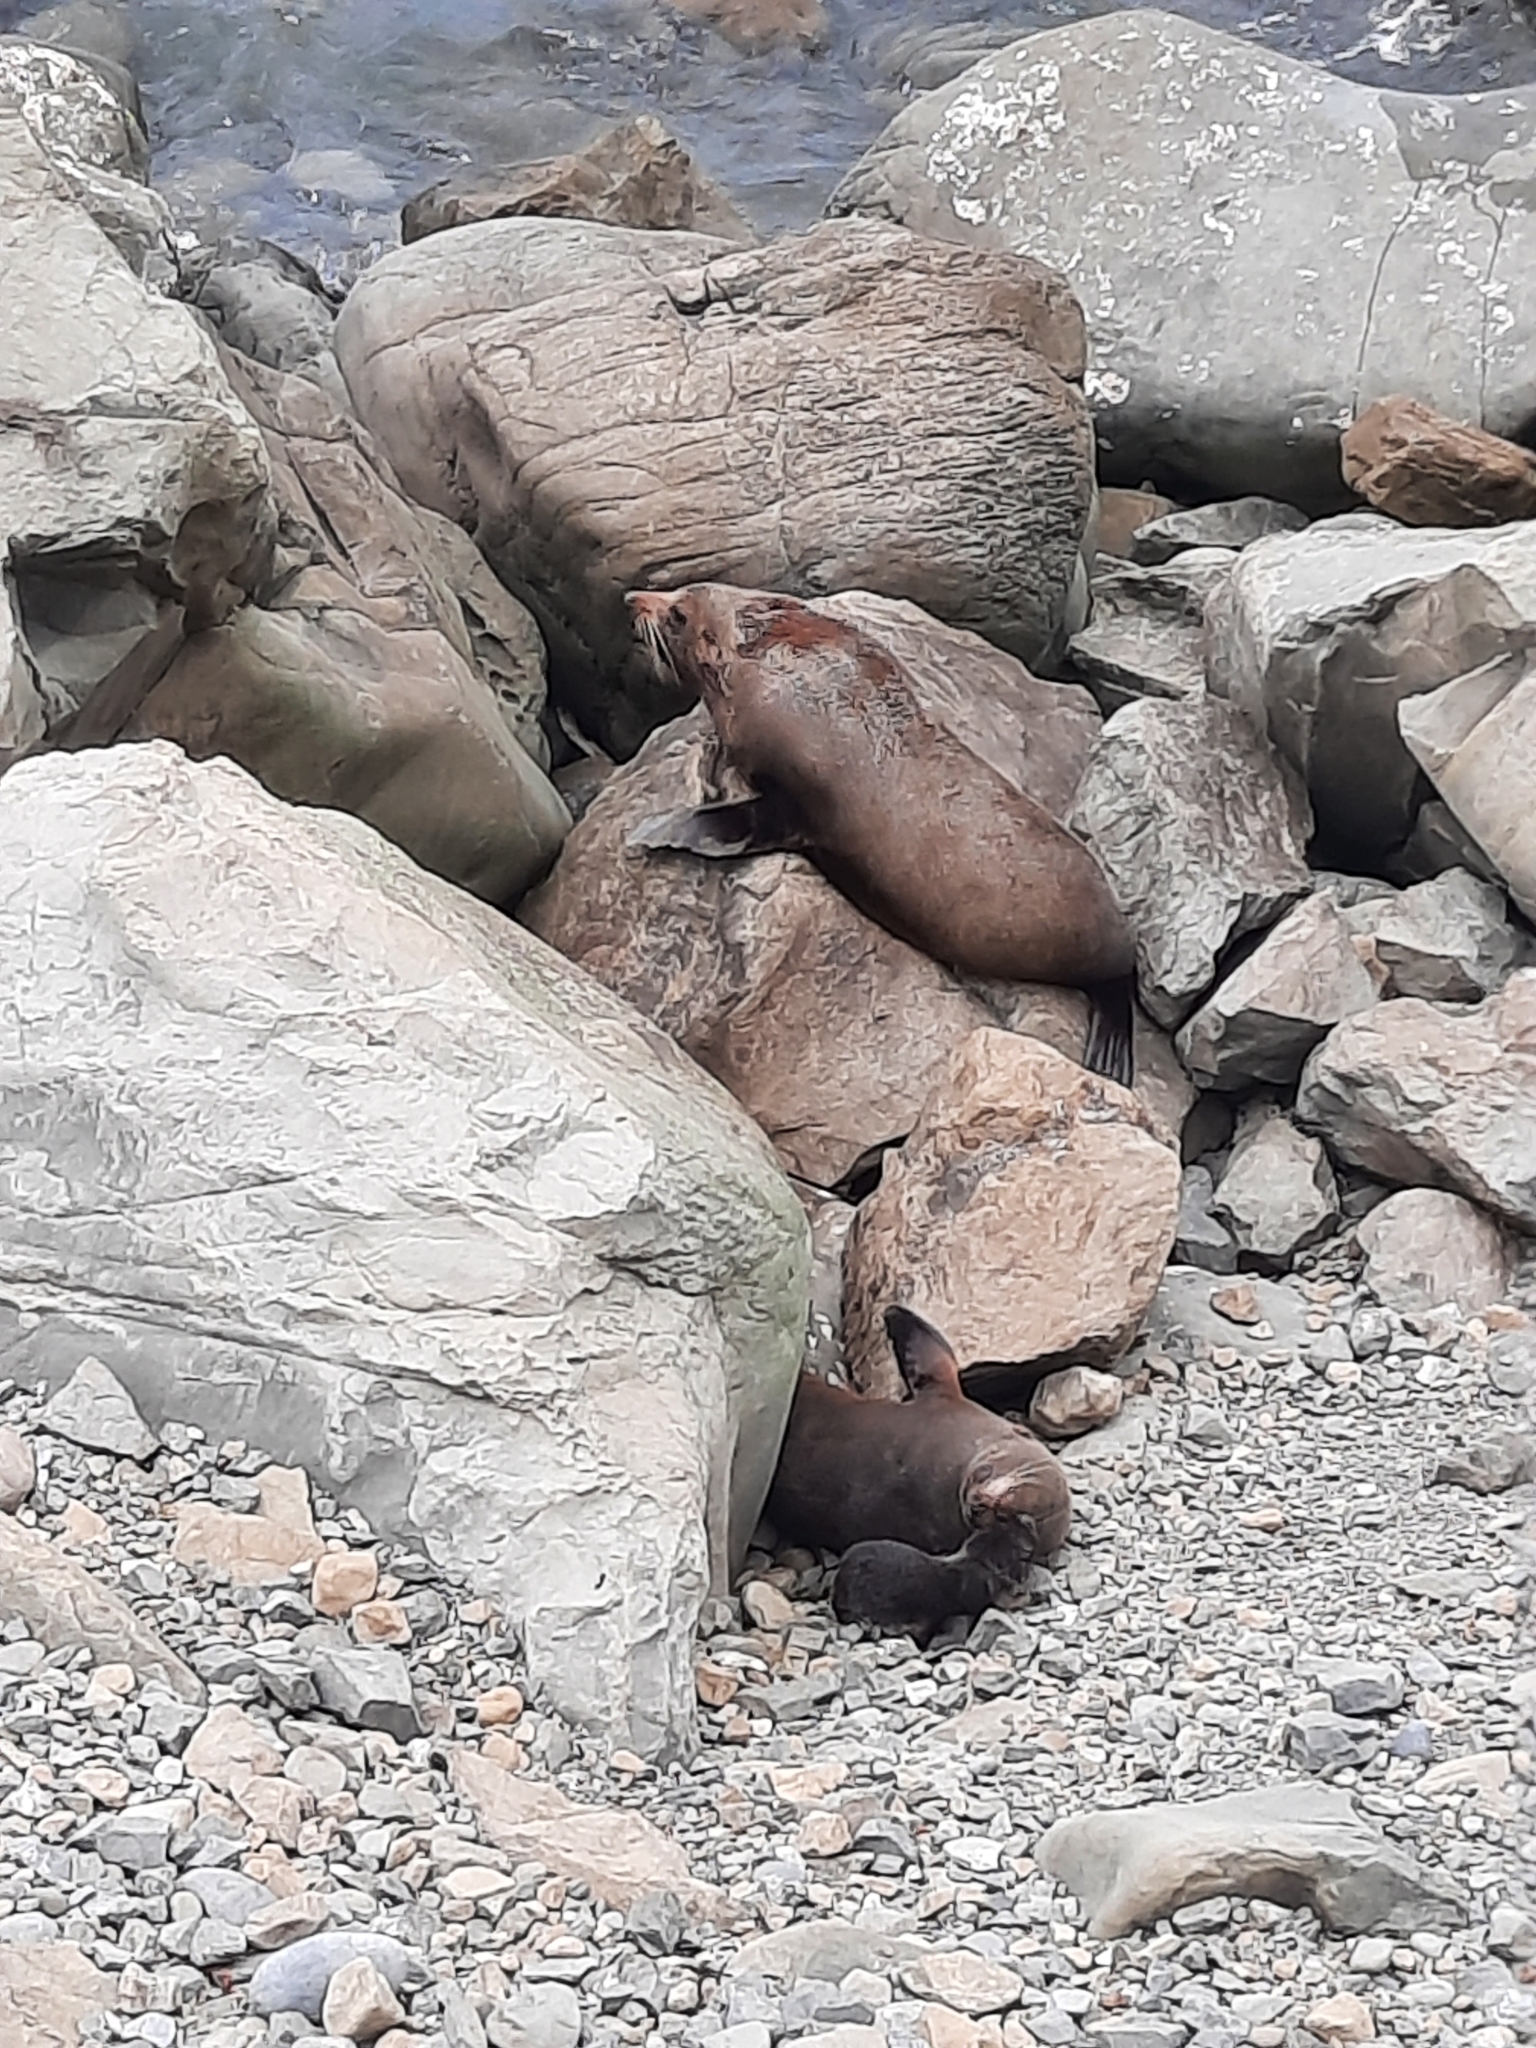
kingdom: Animalia
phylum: Chordata
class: Mammalia
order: Carnivora
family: Otariidae
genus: Arctocephalus
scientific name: Arctocephalus forsteri
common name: New zealand fur seal
